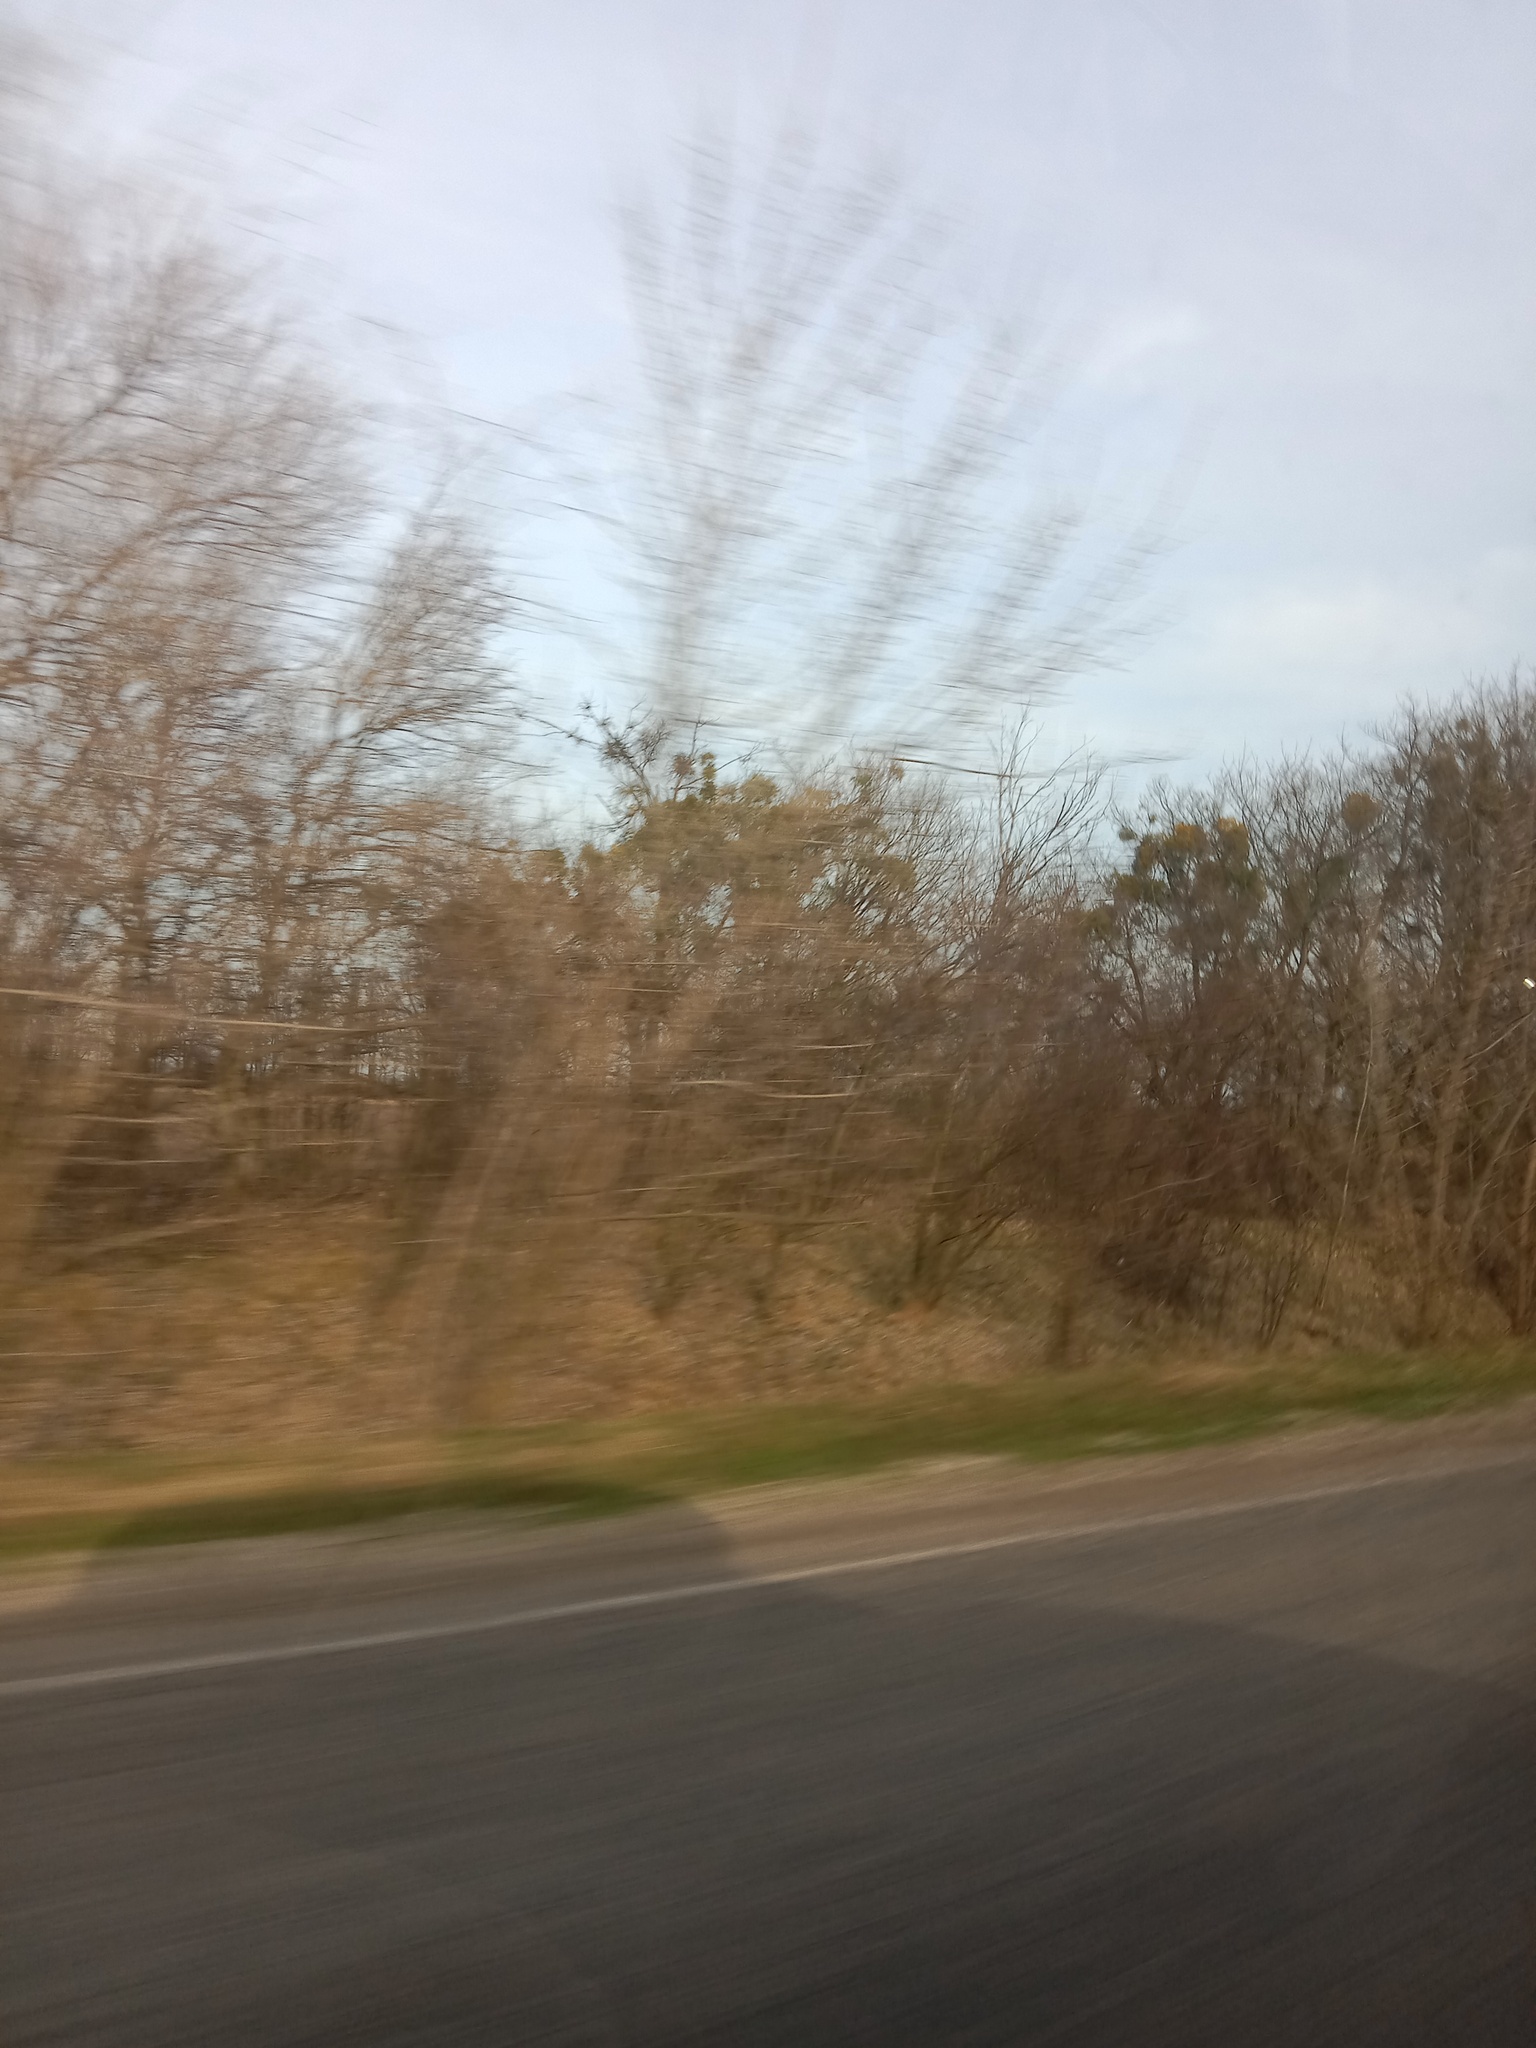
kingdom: Plantae
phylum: Tracheophyta
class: Magnoliopsida
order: Santalales
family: Viscaceae
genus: Viscum
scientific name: Viscum album
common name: Mistletoe
